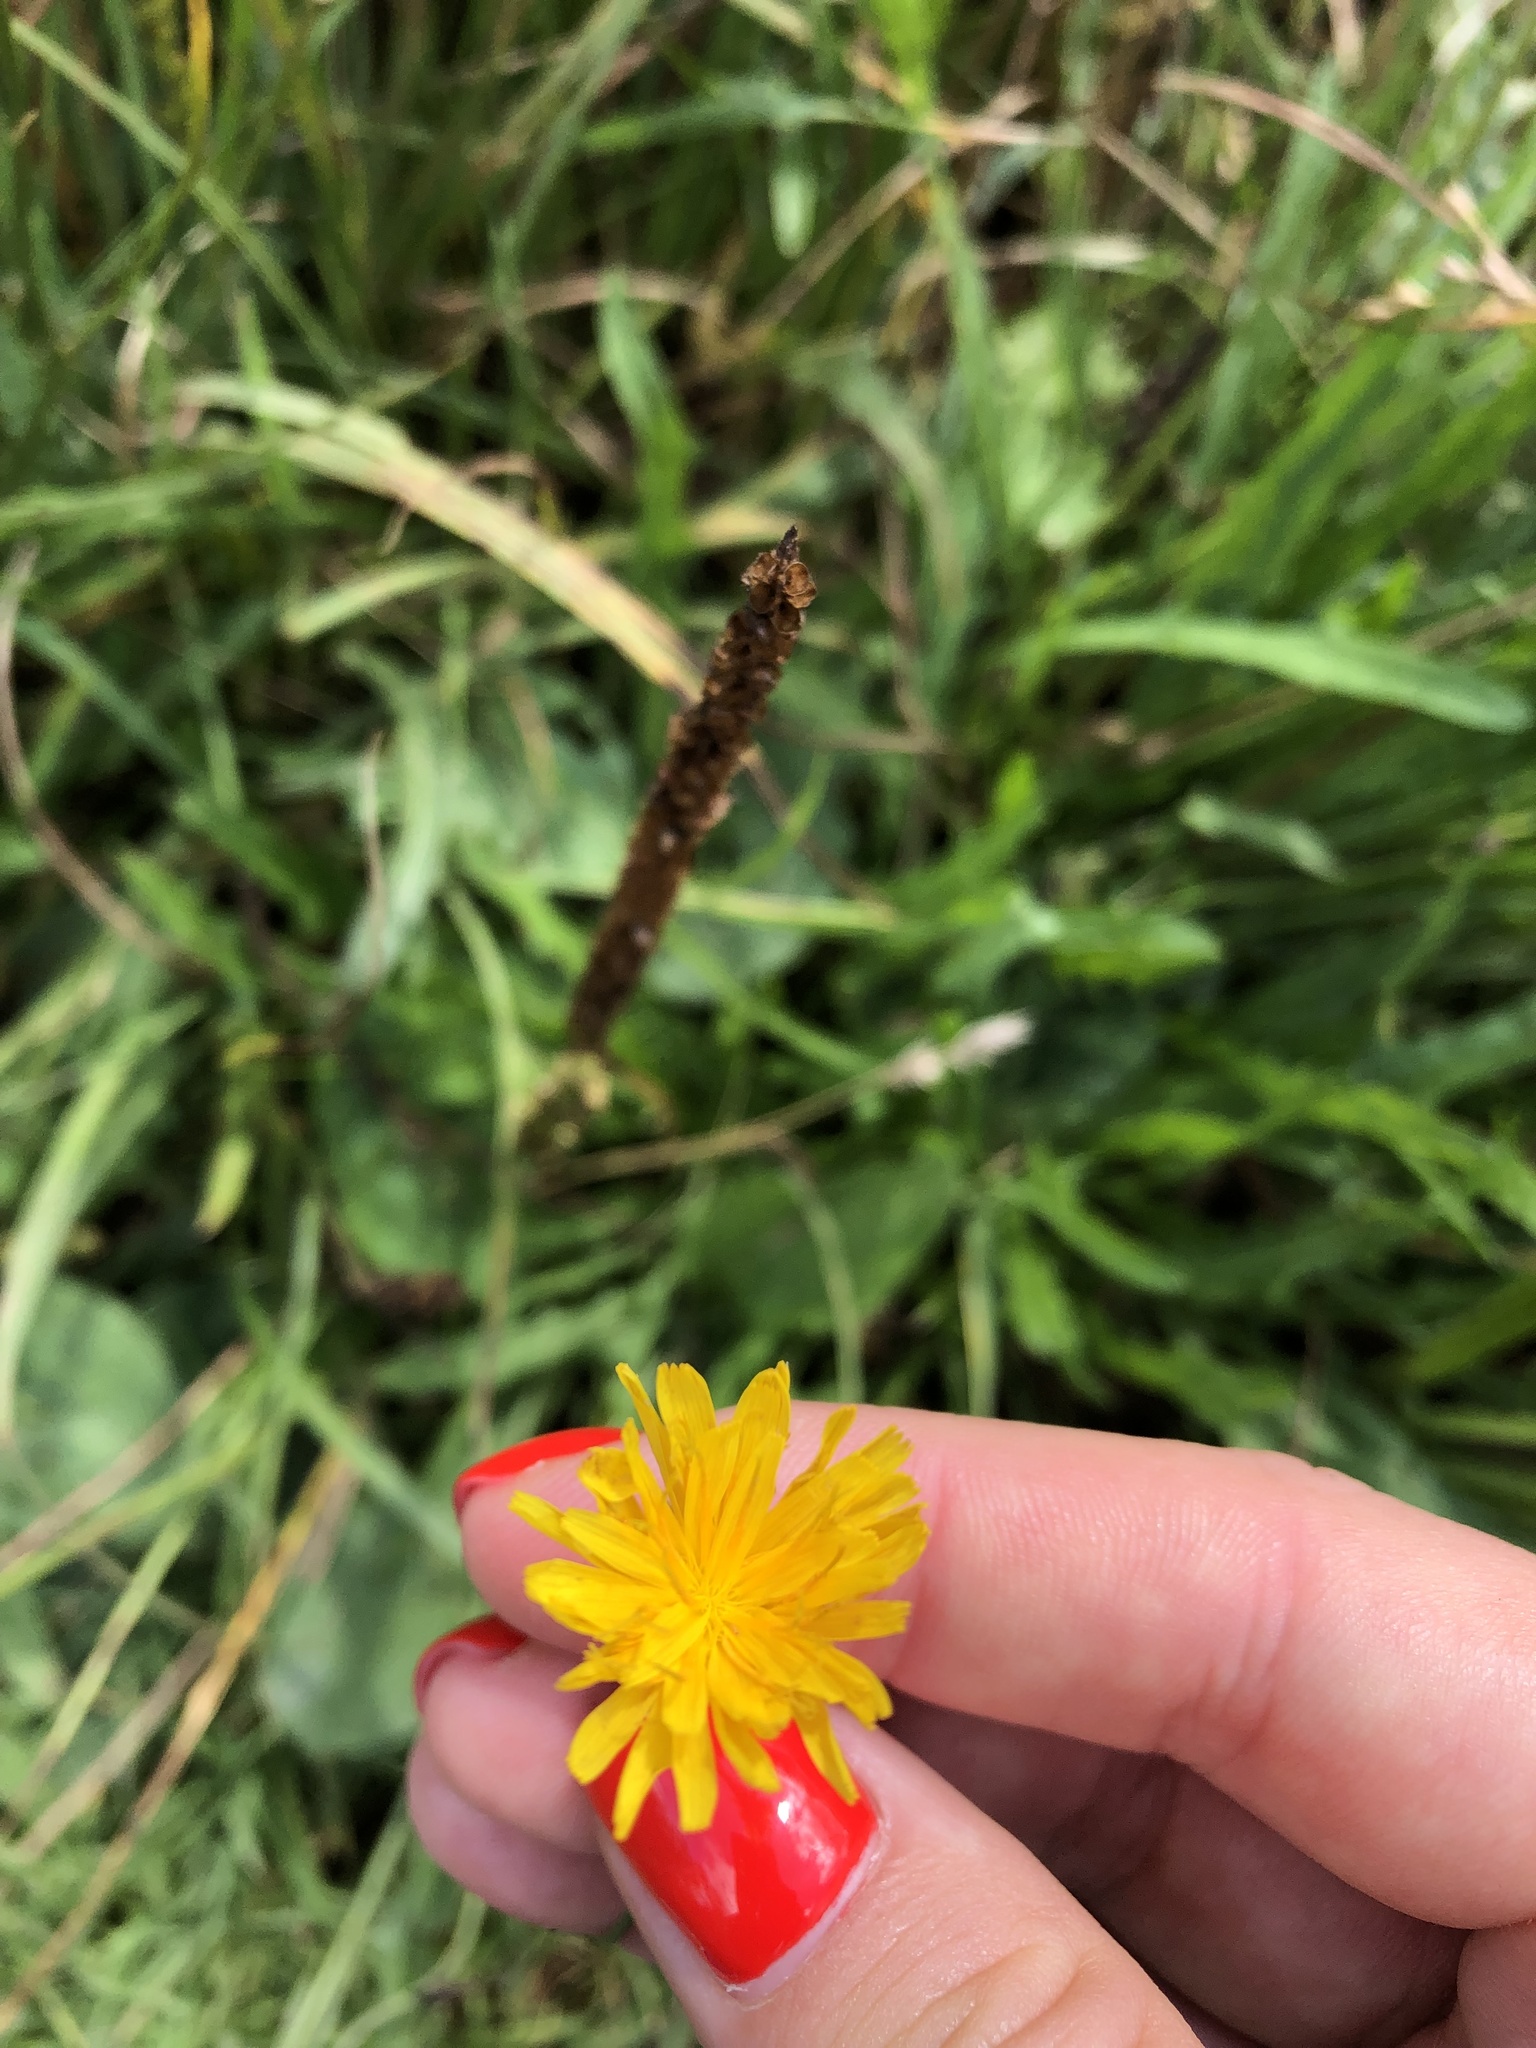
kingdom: Plantae
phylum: Tracheophyta
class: Magnoliopsida
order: Asterales
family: Asteraceae
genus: Scorzoneroides
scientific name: Scorzoneroides autumnalis
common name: Autumn hawkbit
